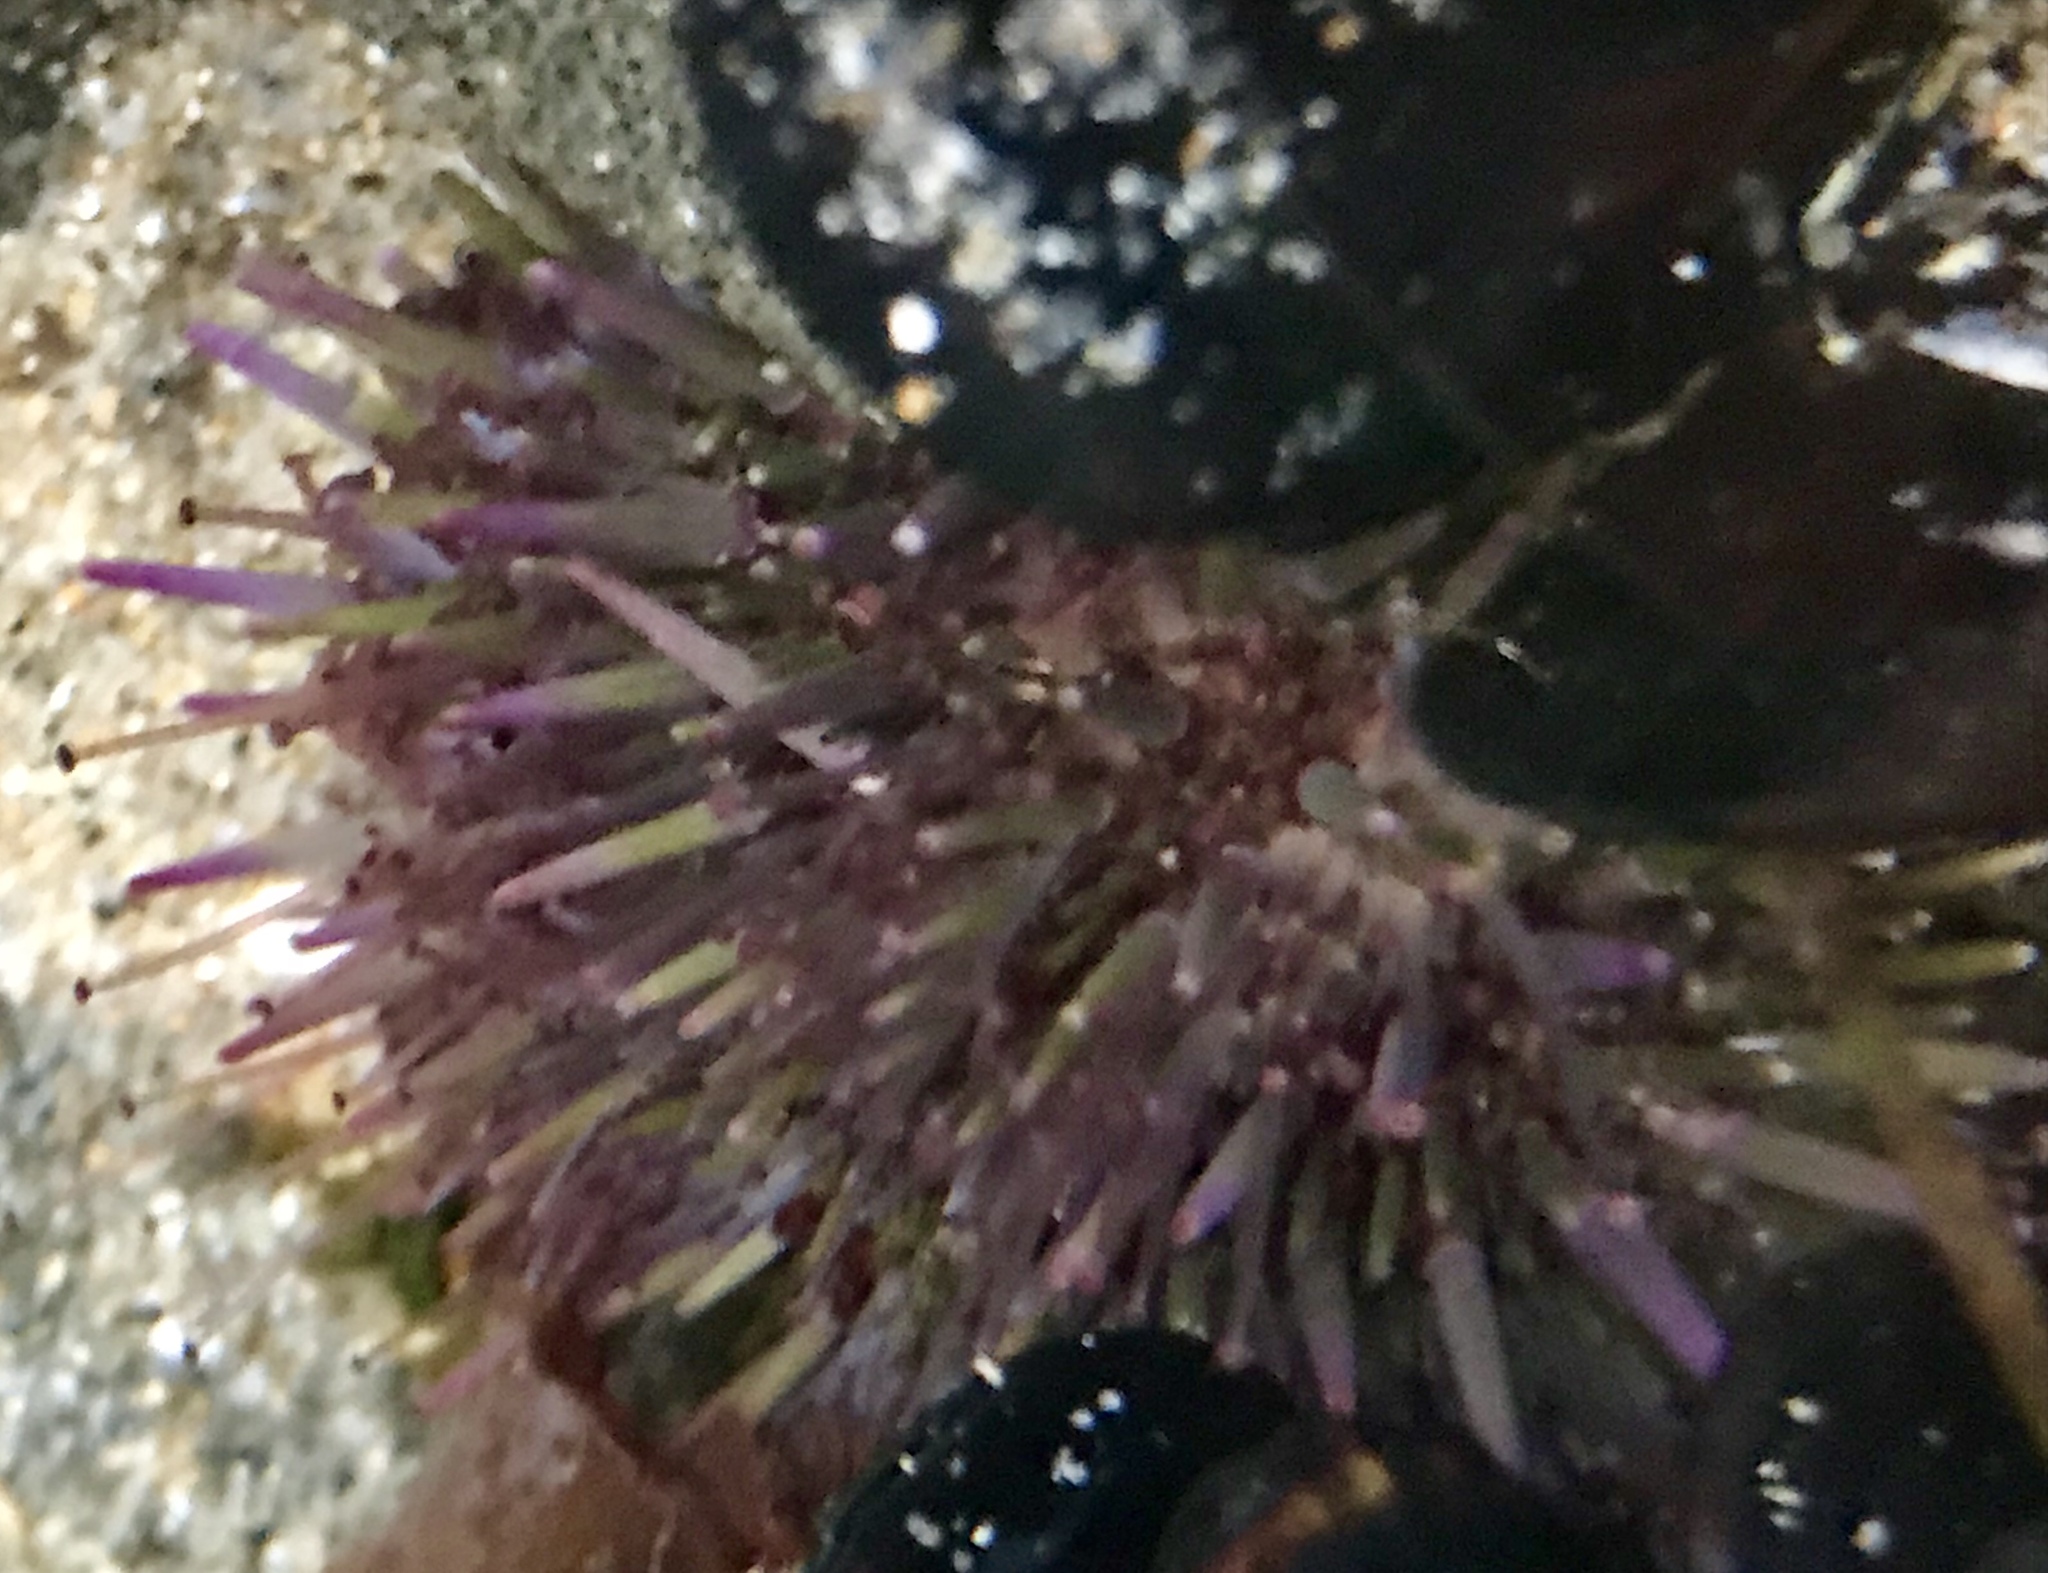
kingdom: Animalia
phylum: Echinodermata
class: Echinoidea
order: Camarodonta
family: Strongylocentrotidae
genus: Strongylocentrotus
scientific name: Strongylocentrotus purpuratus
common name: Purple sea urchin
